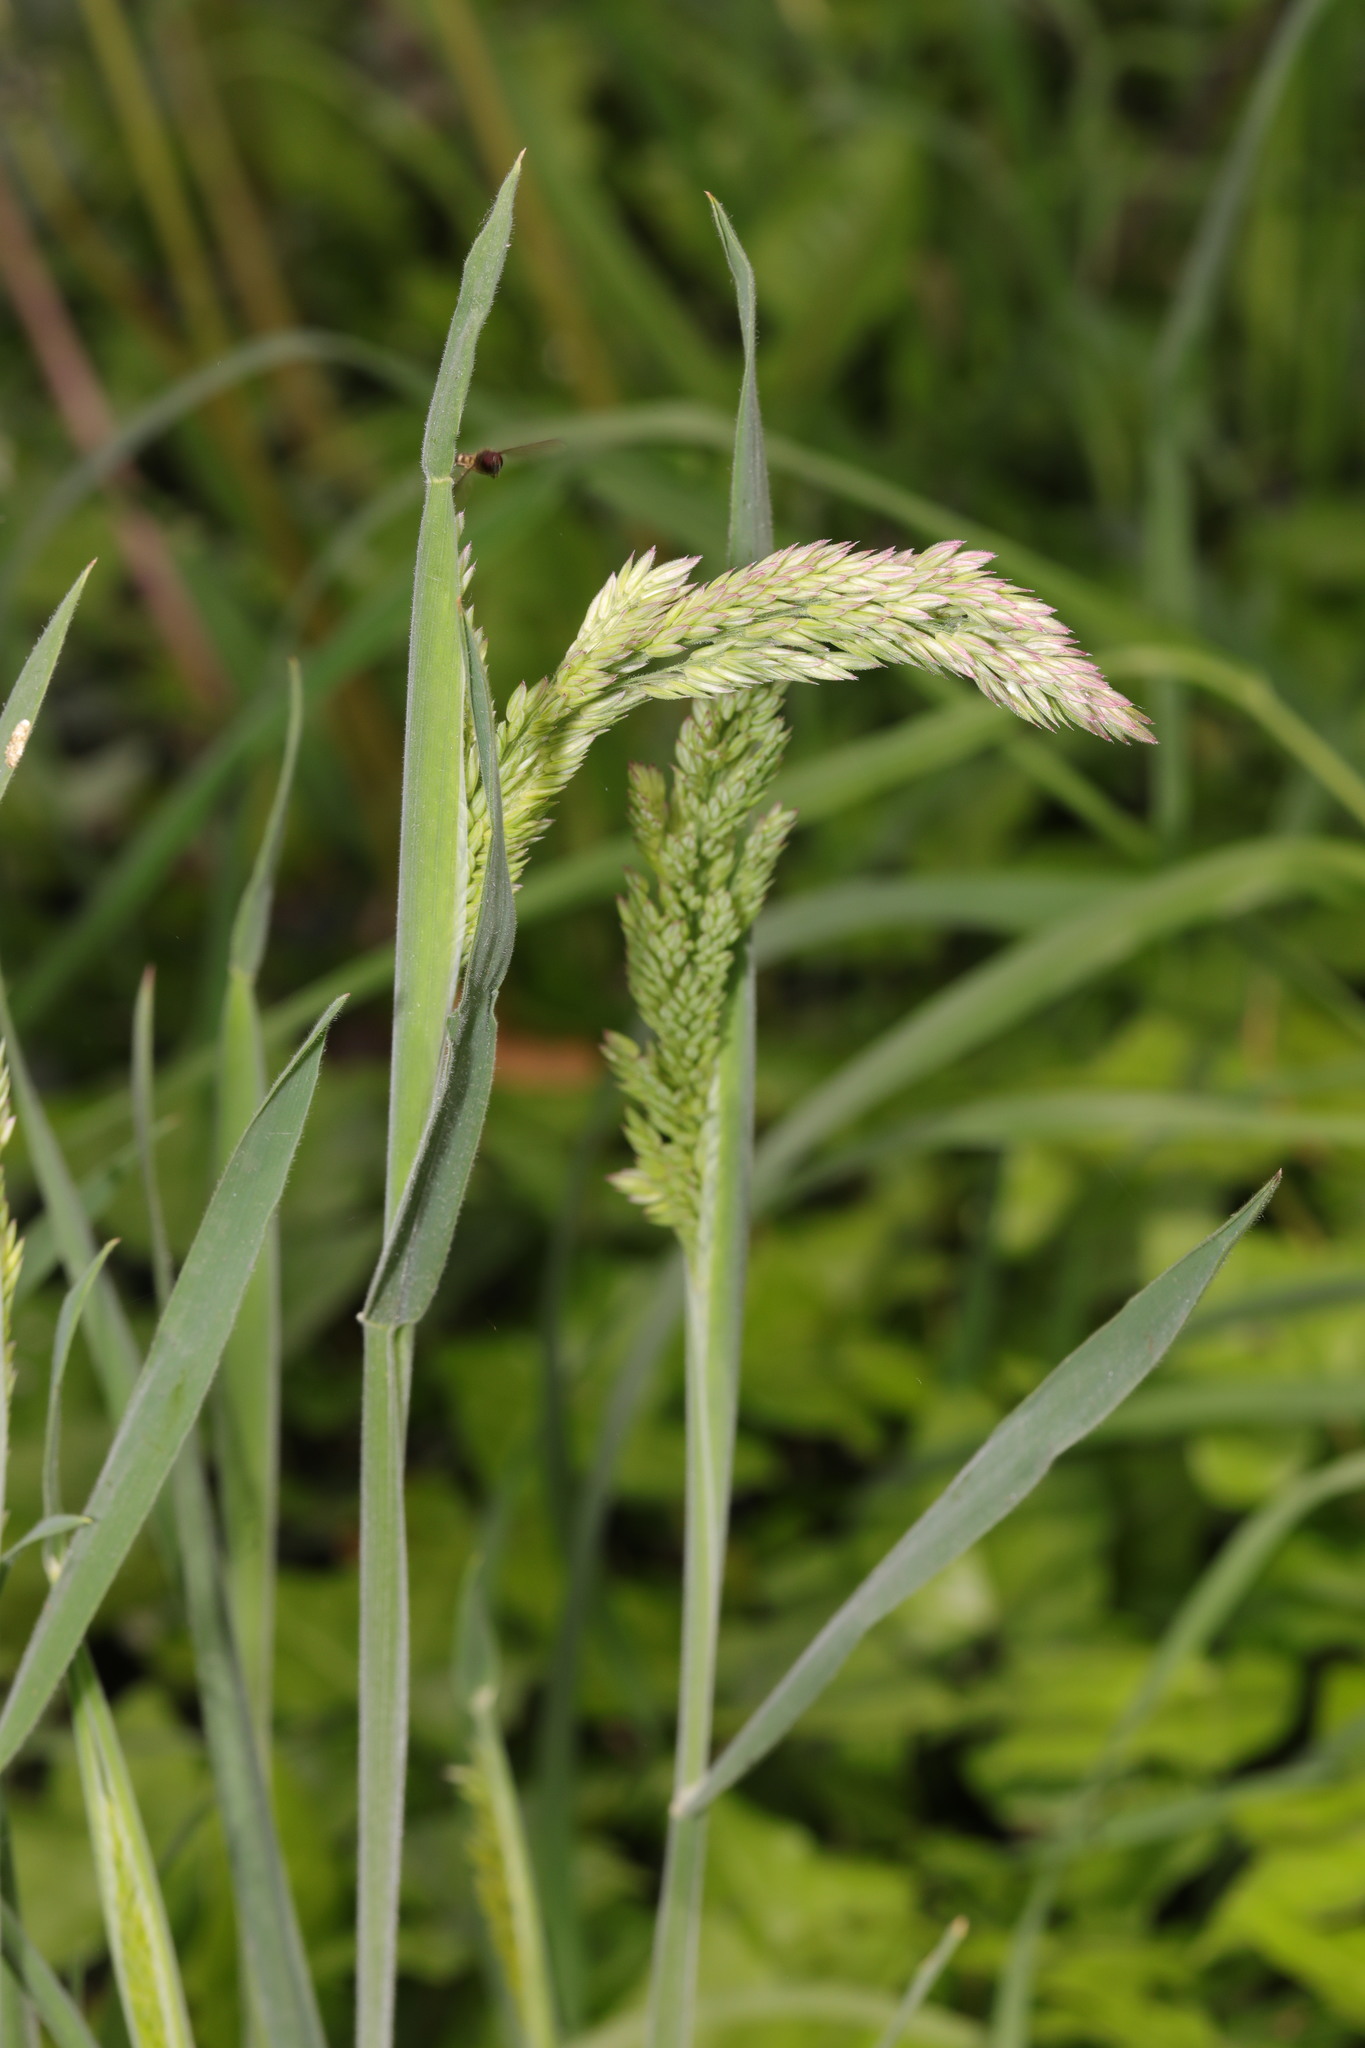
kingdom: Plantae
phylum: Tracheophyta
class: Liliopsida
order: Poales
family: Poaceae
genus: Holcus
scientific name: Holcus lanatus
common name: Yorkshire-fog
